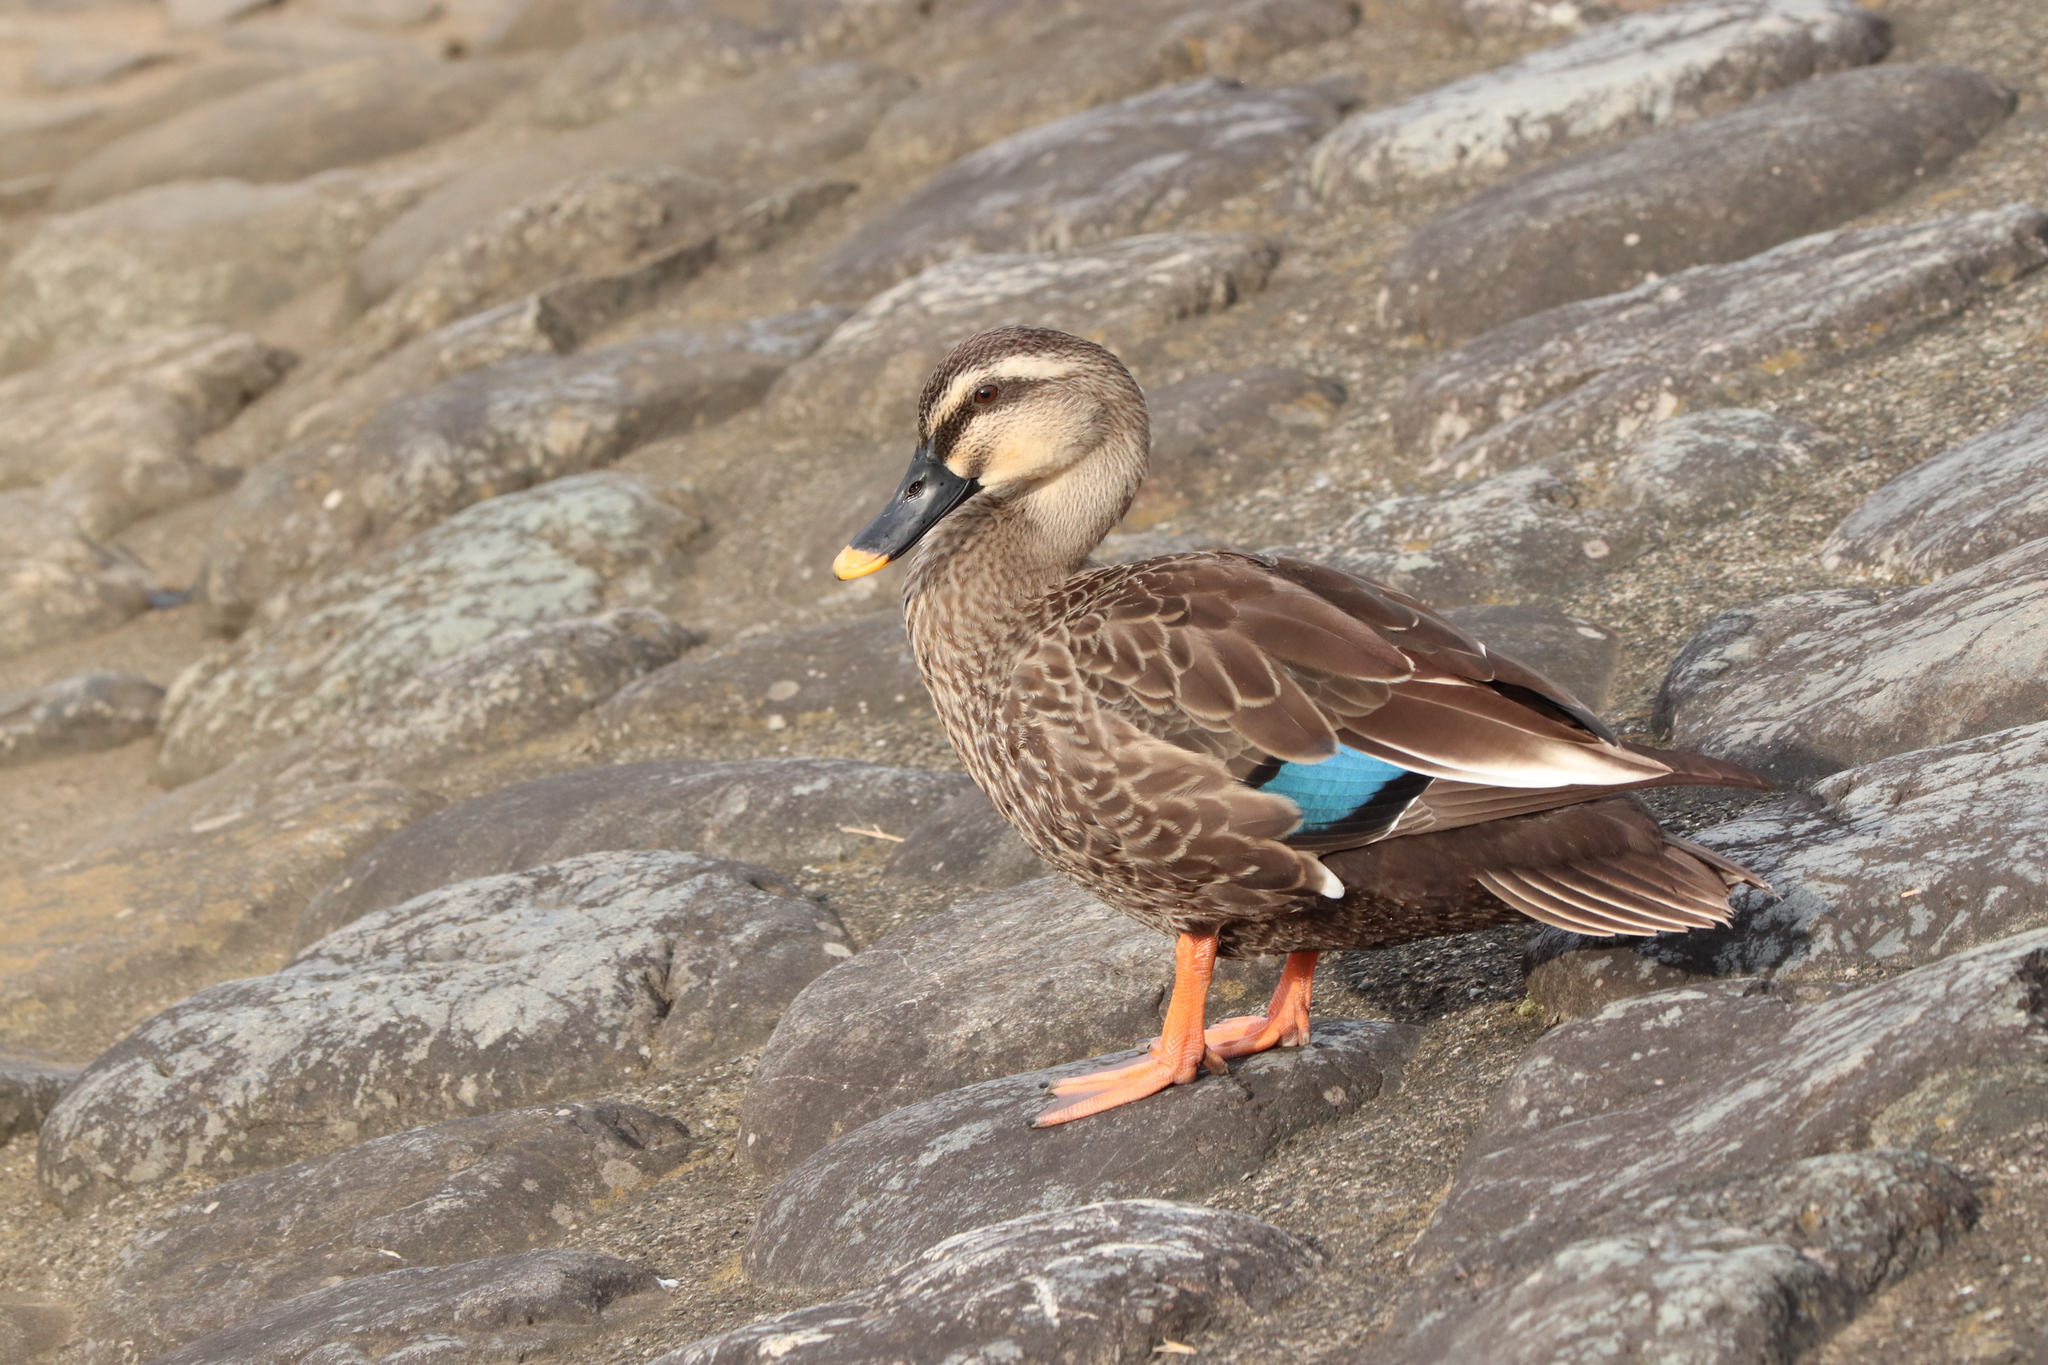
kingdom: Animalia
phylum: Chordata
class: Aves
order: Anseriformes
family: Anatidae
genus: Anas
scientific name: Anas zonorhyncha
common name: Eastern spot-billed duck
